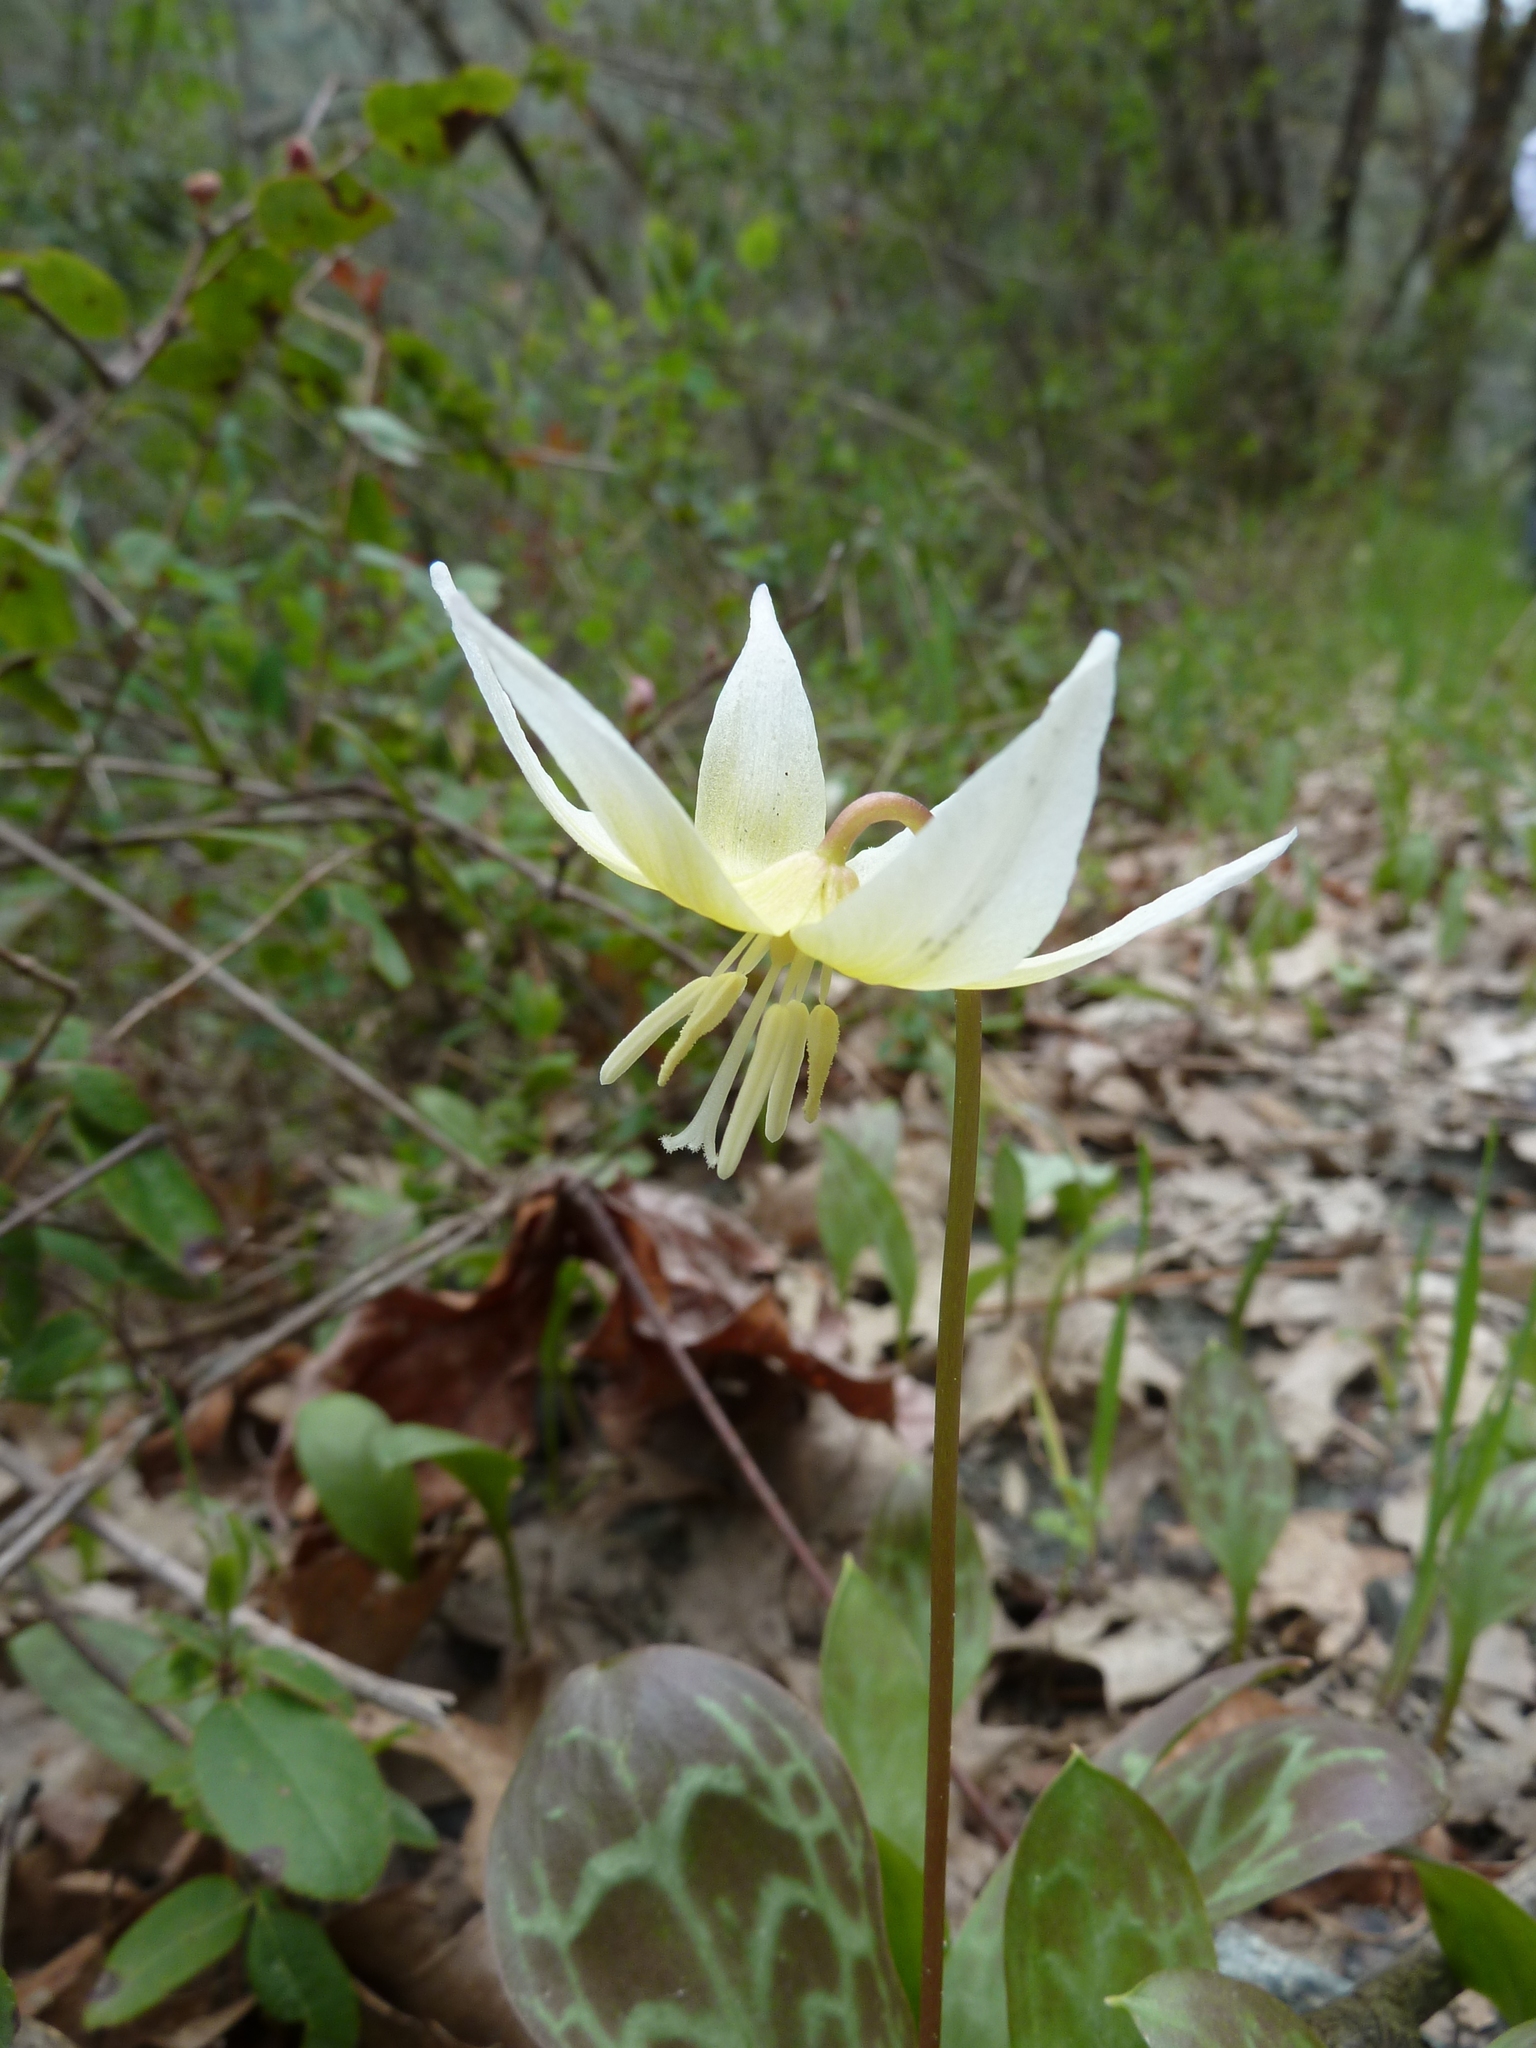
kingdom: Plantae
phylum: Tracheophyta
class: Liliopsida
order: Liliales
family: Liliaceae
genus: Erythronium
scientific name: Erythronium multiscapideum
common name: Sierra foothills fawn-lily
